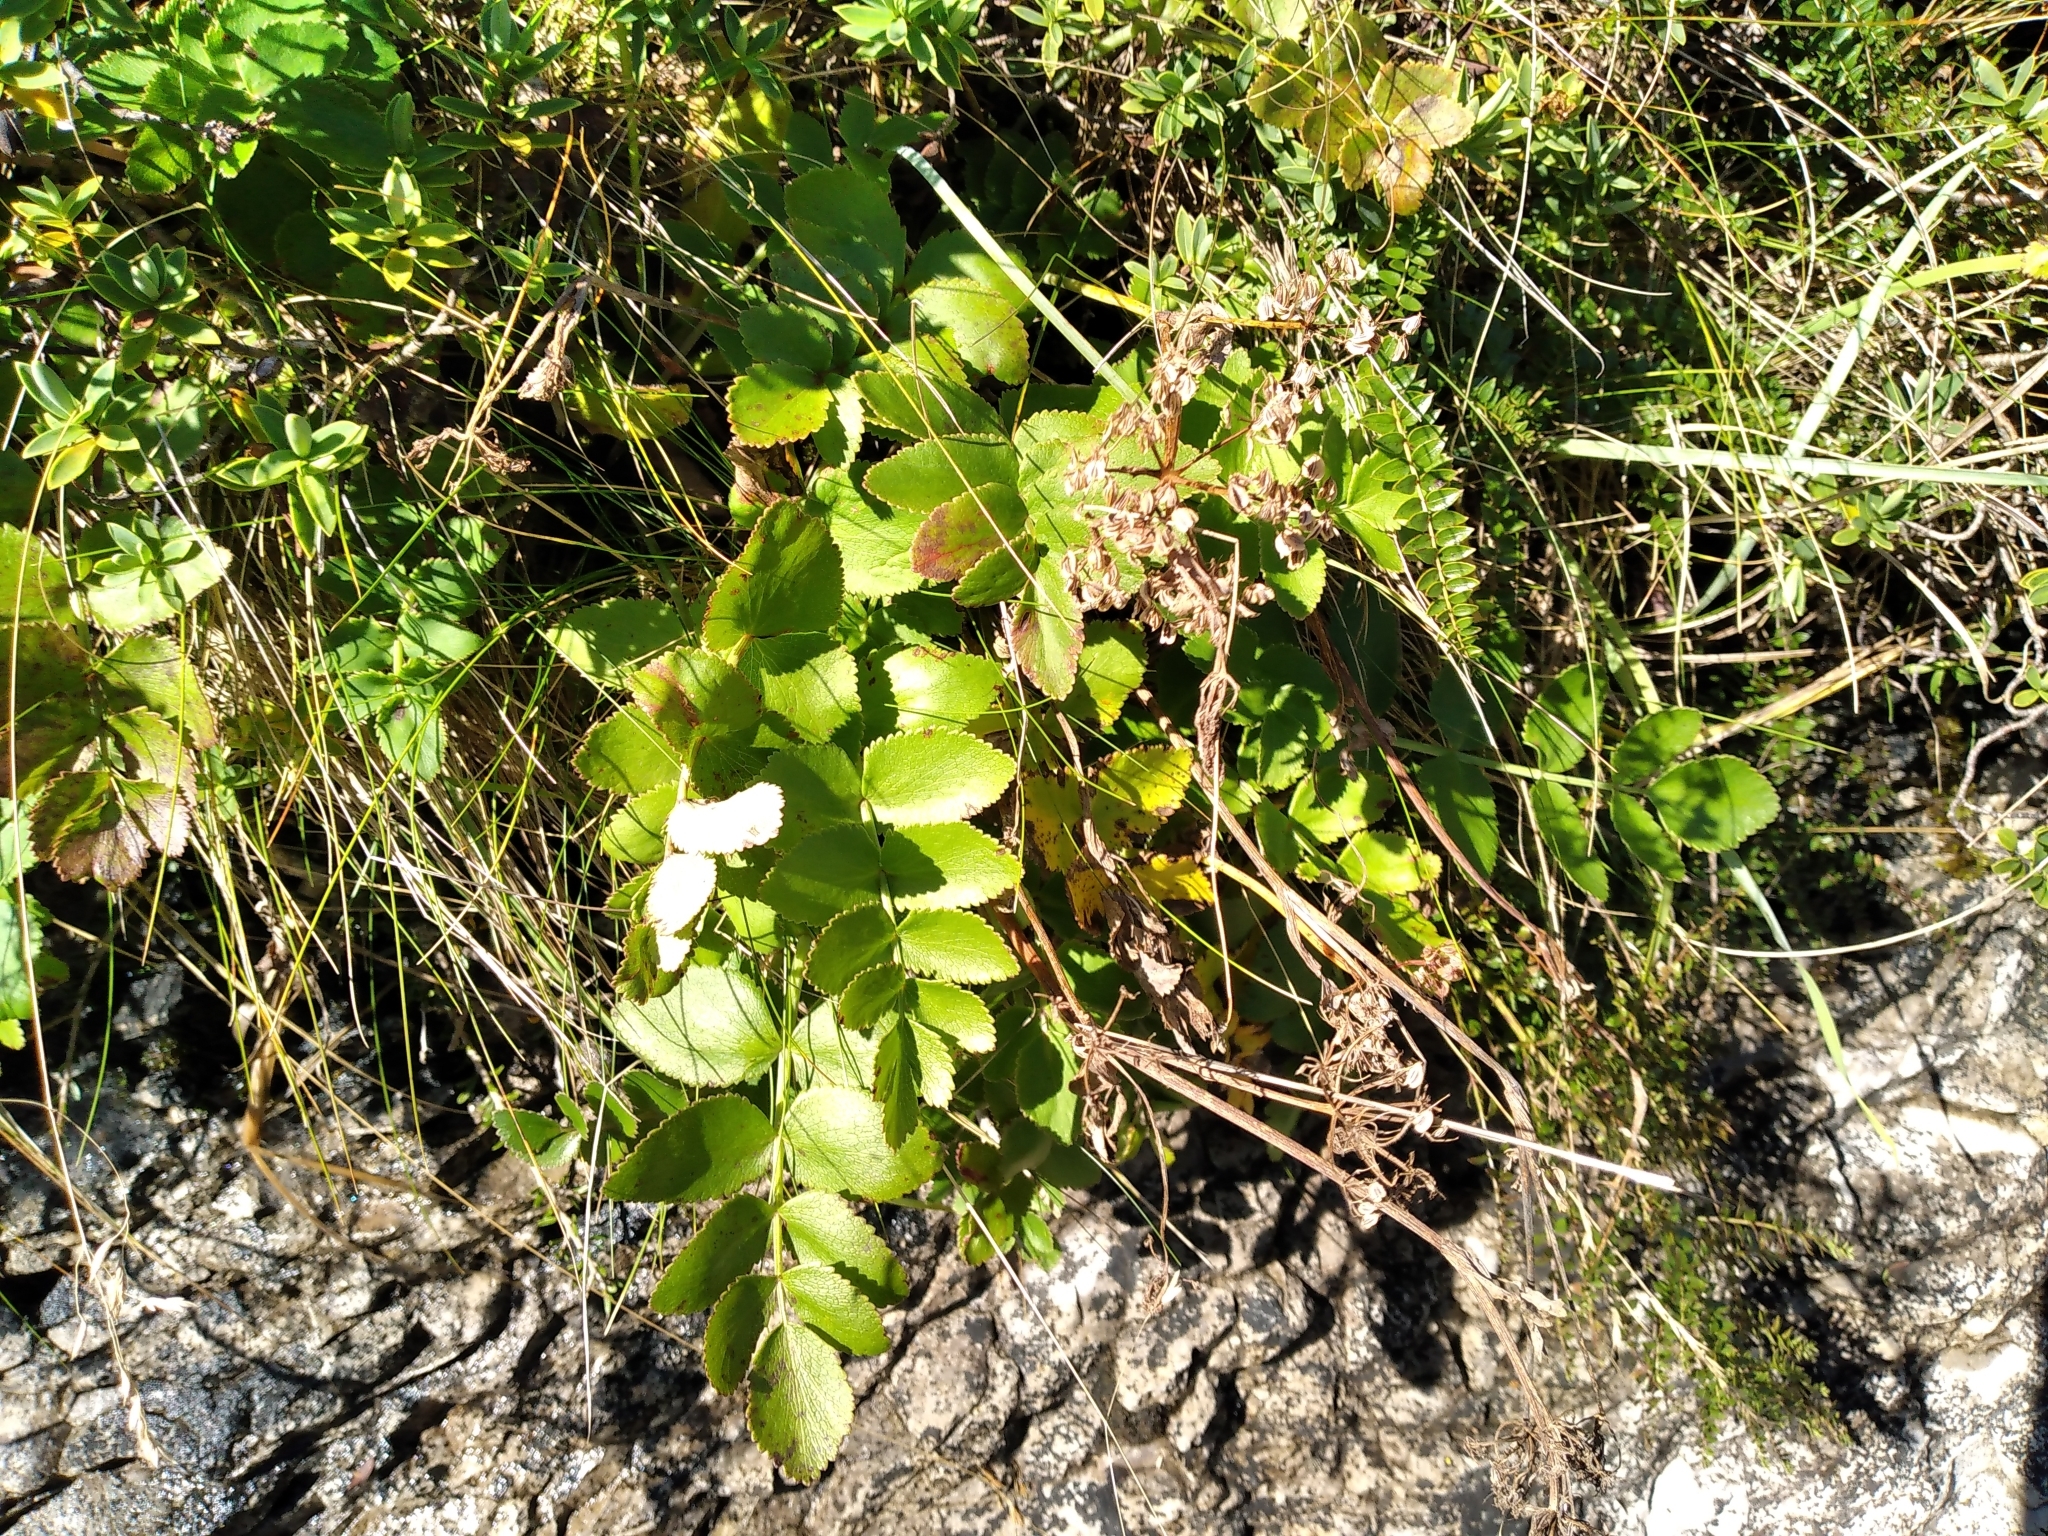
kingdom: Plantae
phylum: Tracheophyta
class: Magnoliopsida
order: Apiales
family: Apiaceae
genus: Gingidia
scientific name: Gingidia montana
